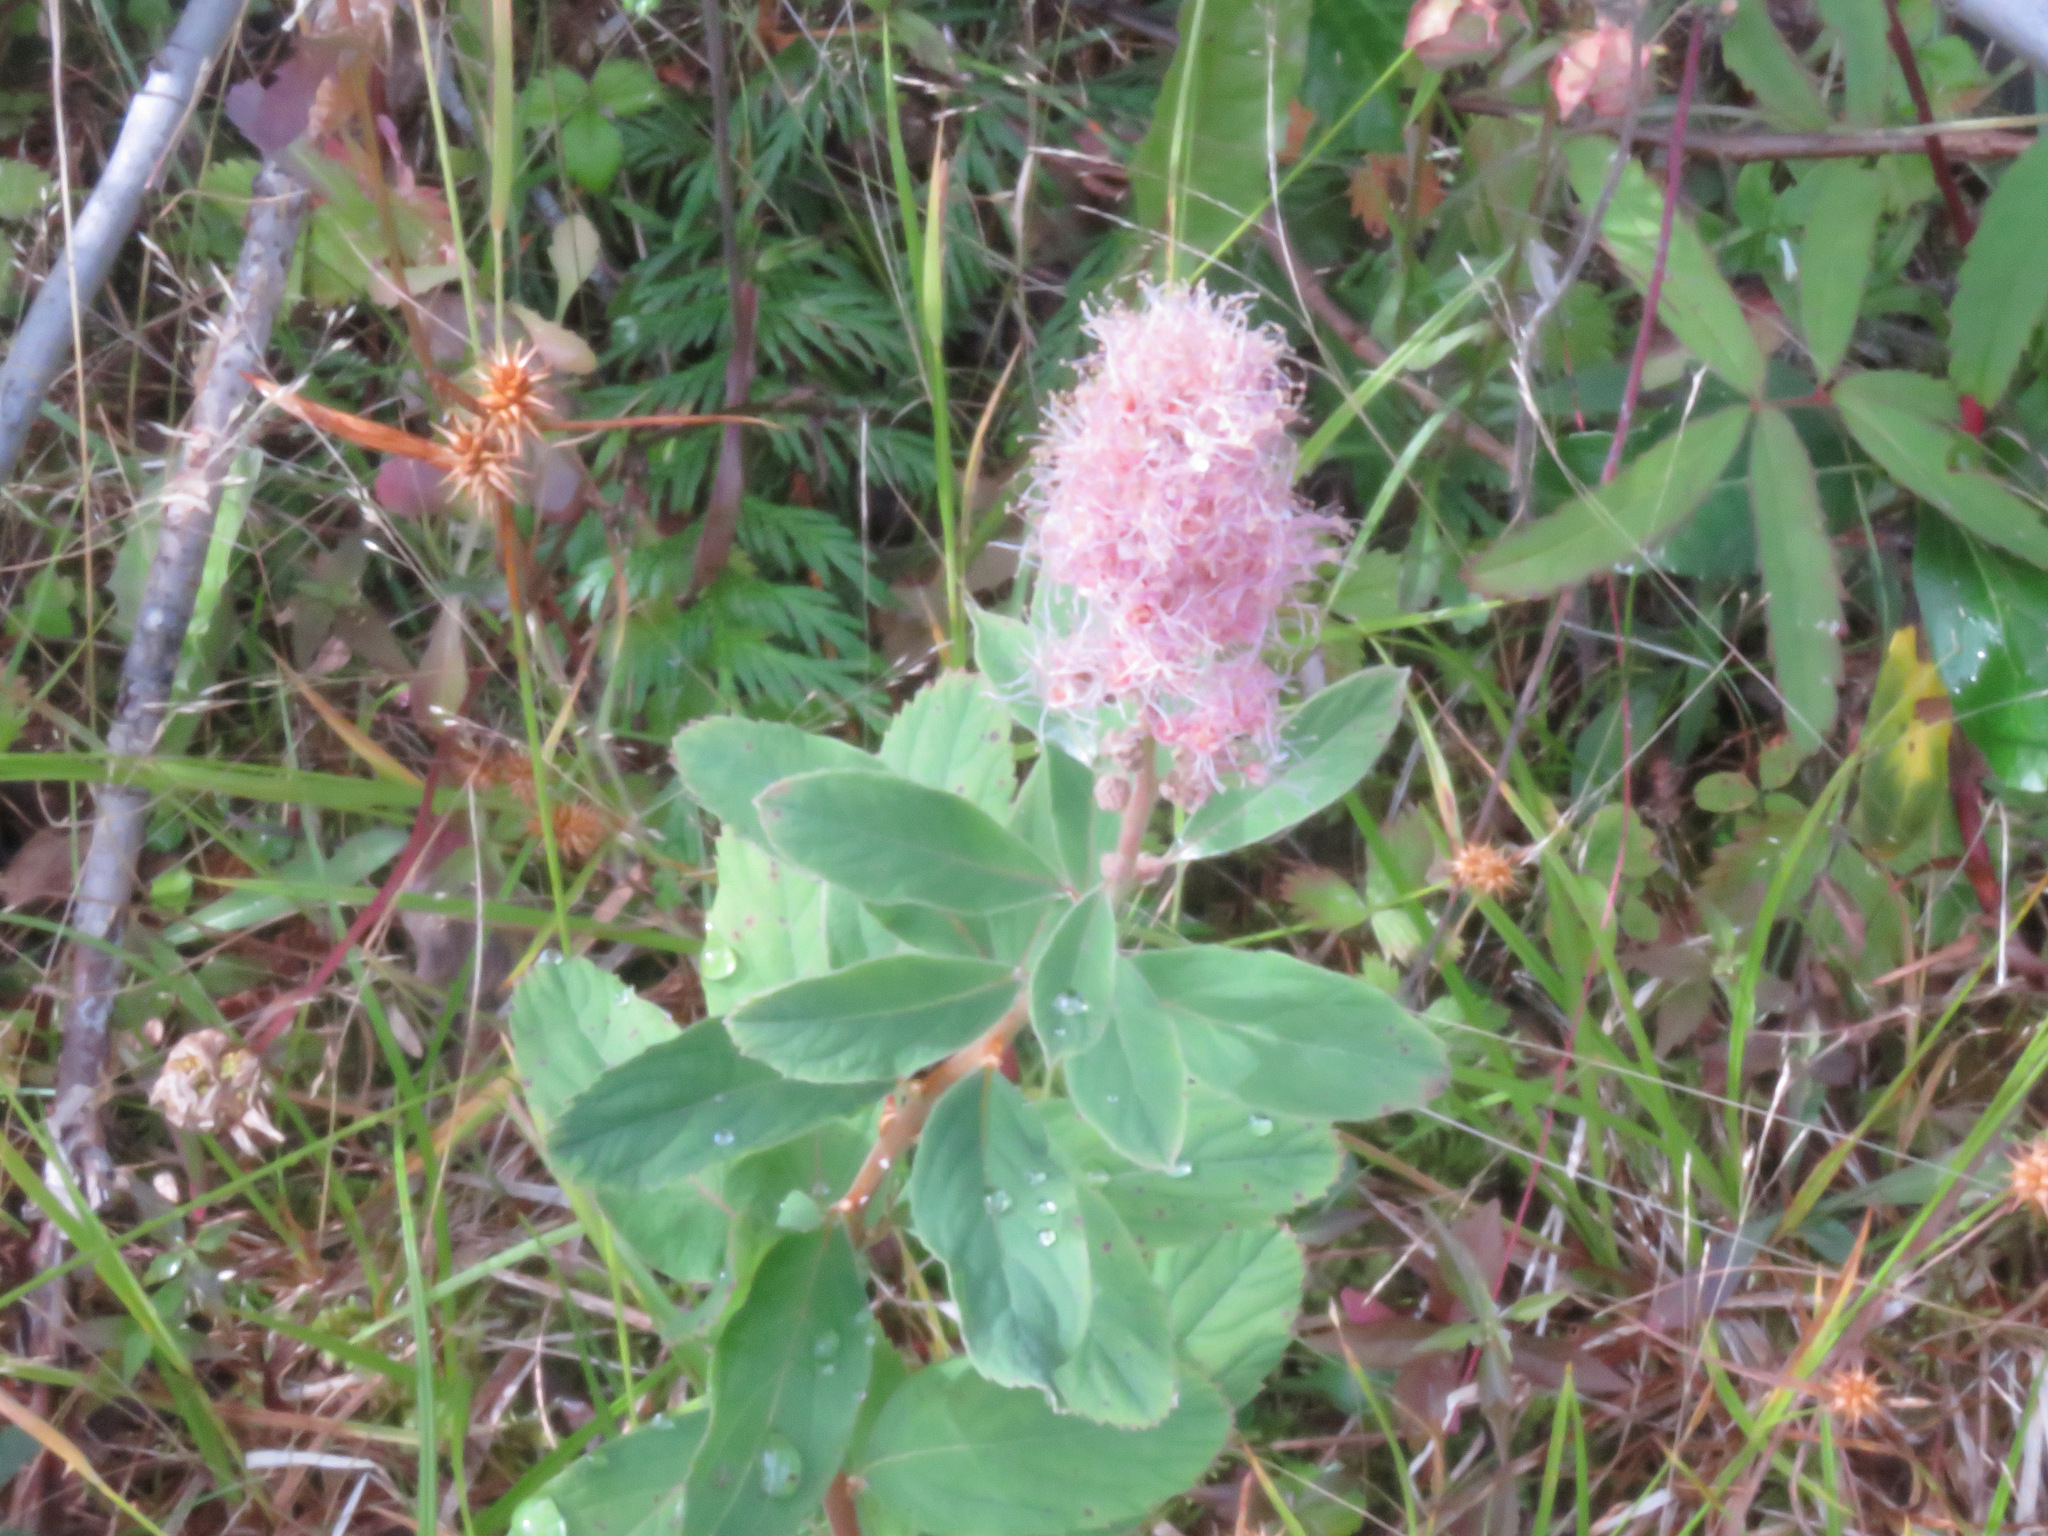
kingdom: Plantae
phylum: Tracheophyta
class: Magnoliopsida
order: Rosales
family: Rosaceae
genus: Spiraea
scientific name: Spiraea douglasii
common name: Steeplebush
